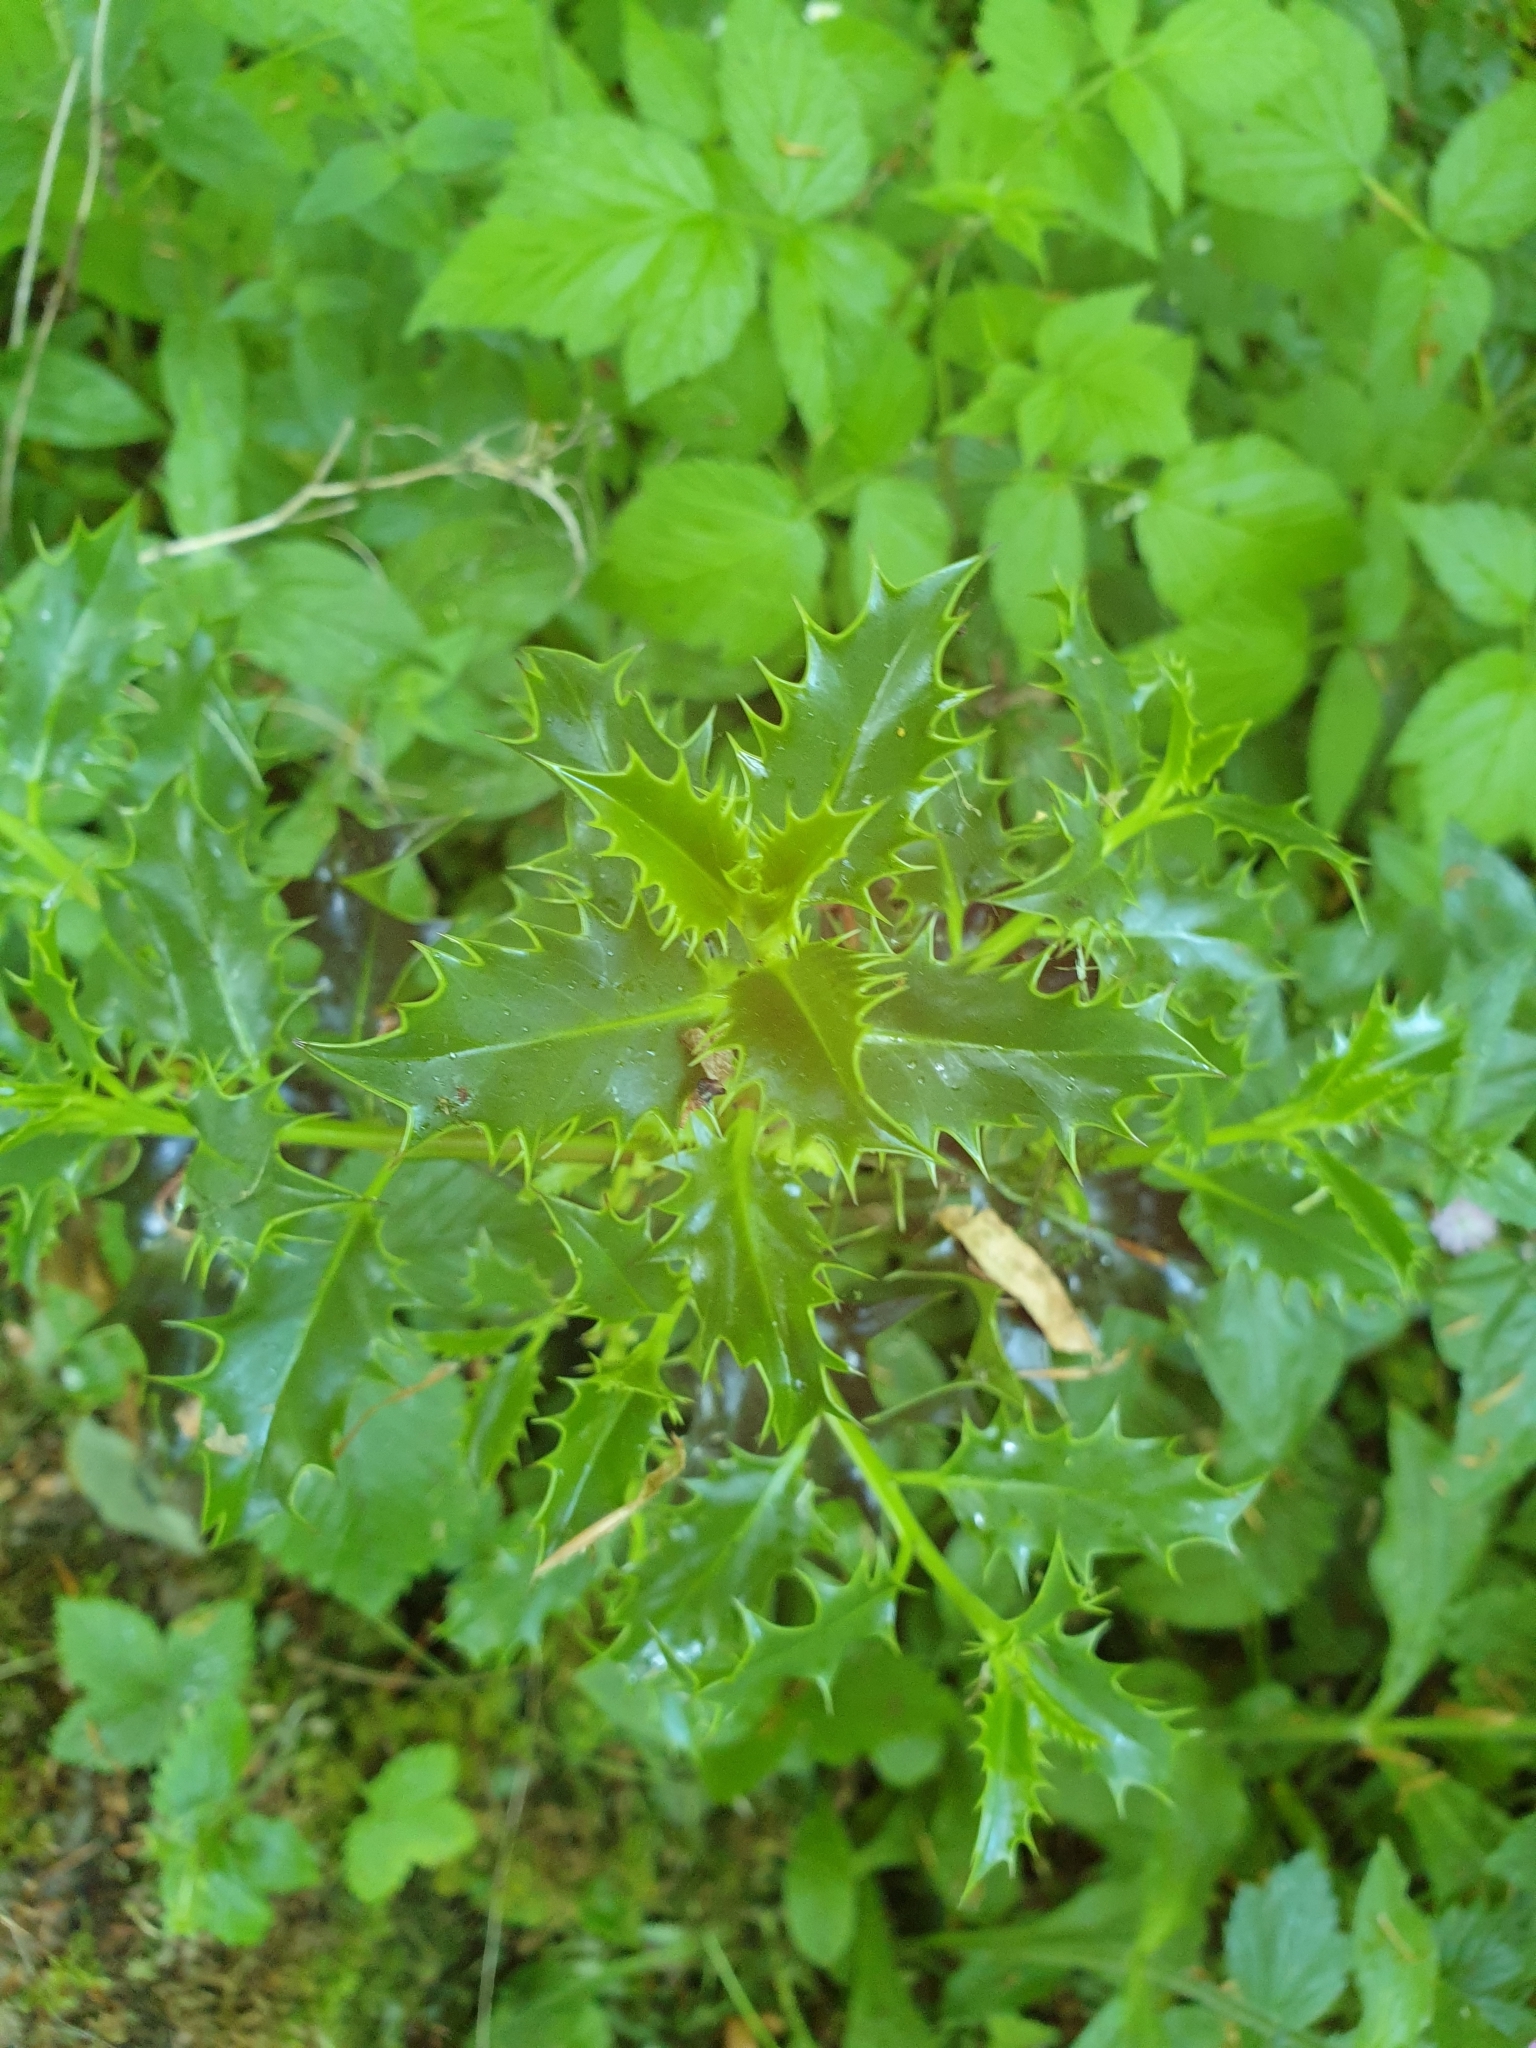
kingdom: Plantae
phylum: Tracheophyta
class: Magnoliopsida
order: Aquifoliales
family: Aquifoliaceae
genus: Ilex
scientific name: Ilex aquifolium
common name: English holly
